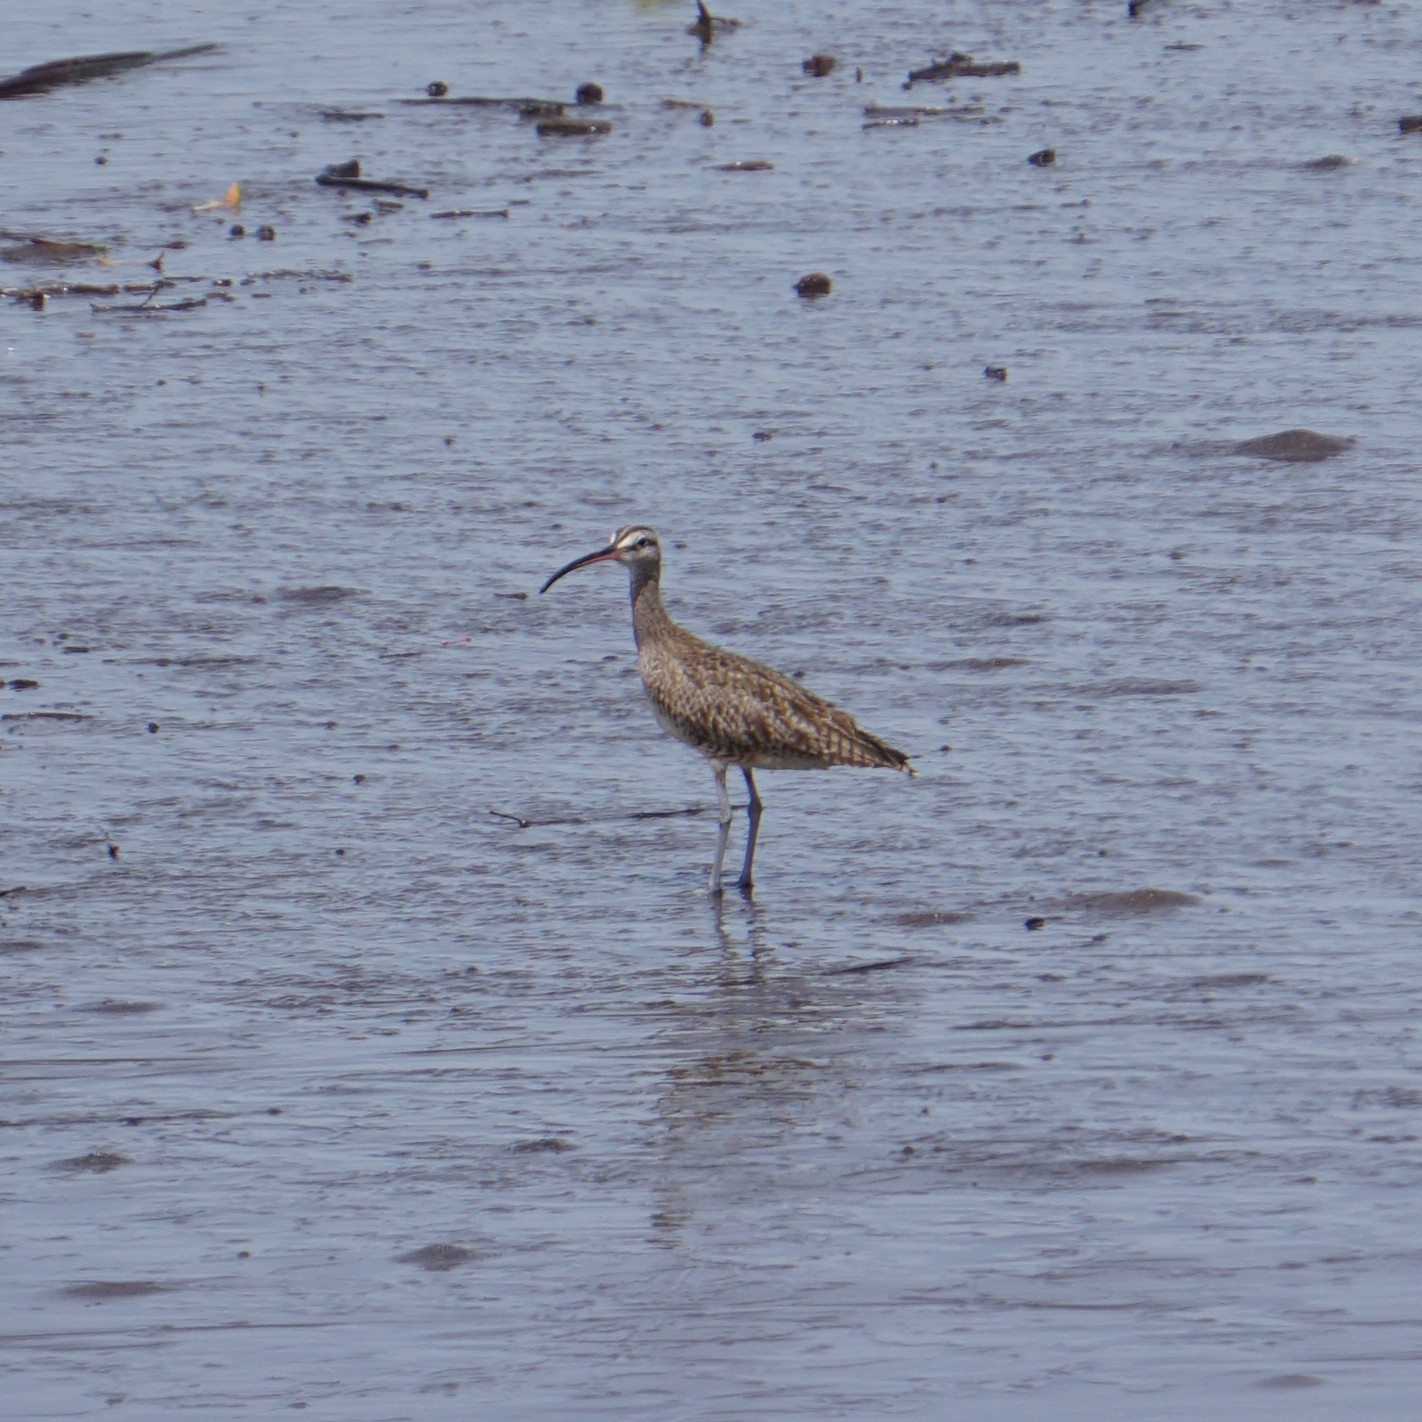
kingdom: Animalia
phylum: Chordata
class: Aves
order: Charadriiformes
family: Scolopacidae
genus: Numenius
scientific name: Numenius phaeopus
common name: Whimbrel
